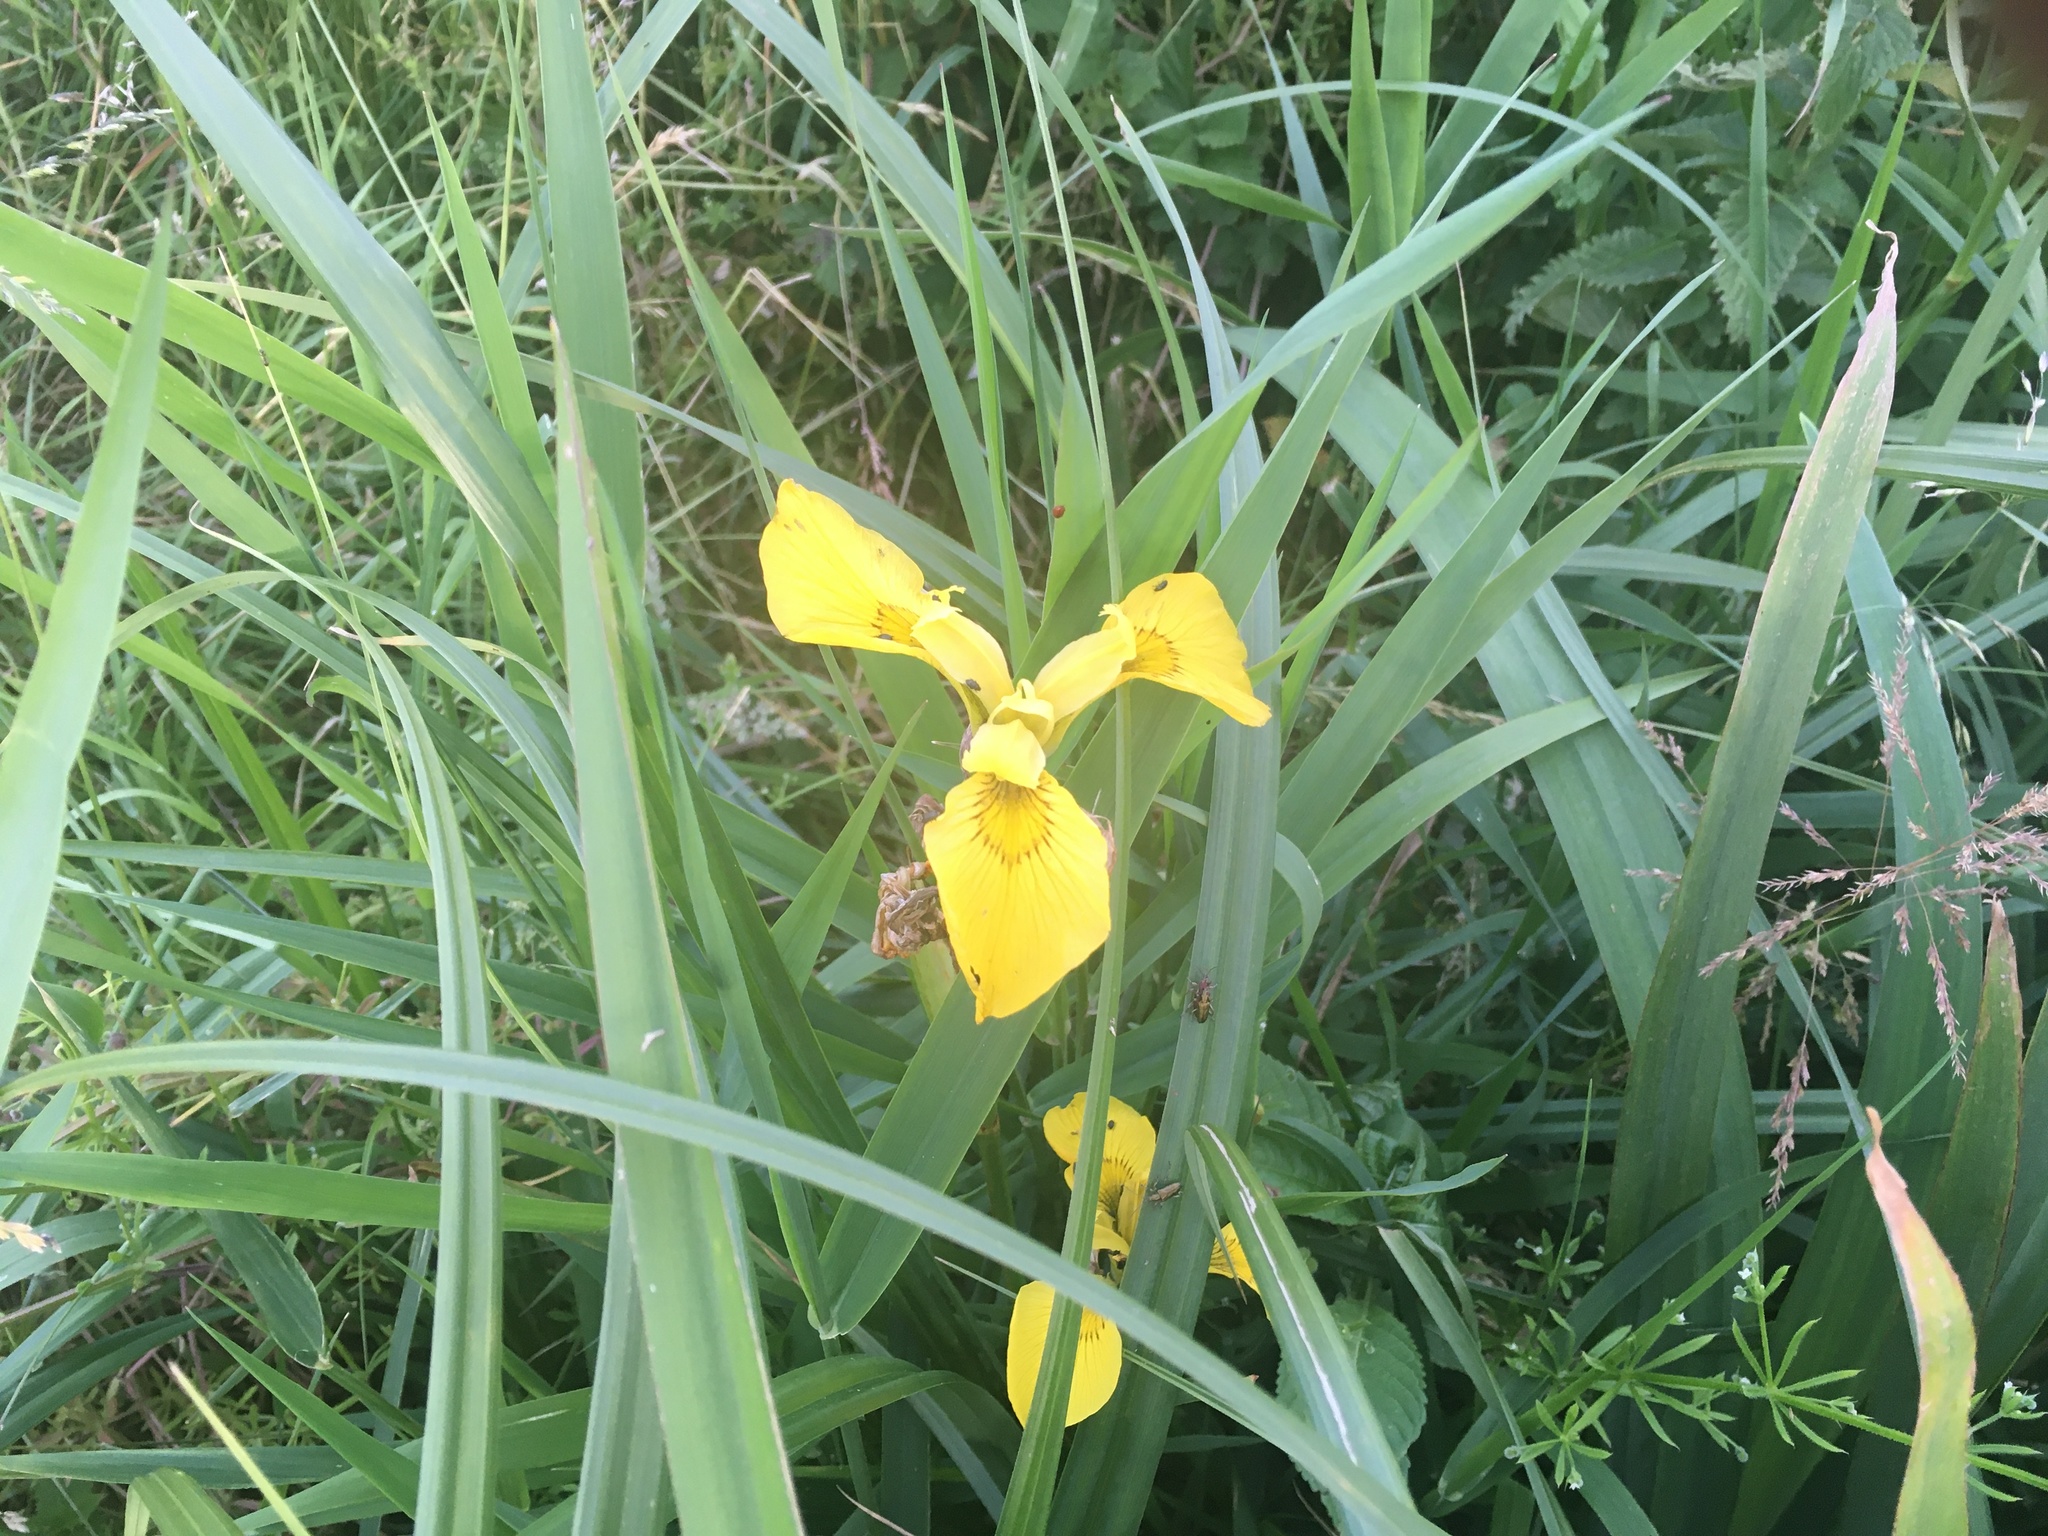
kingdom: Plantae
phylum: Tracheophyta
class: Liliopsida
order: Asparagales
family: Iridaceae
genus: Iris
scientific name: Iris pseudacorus
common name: Yellow flag
